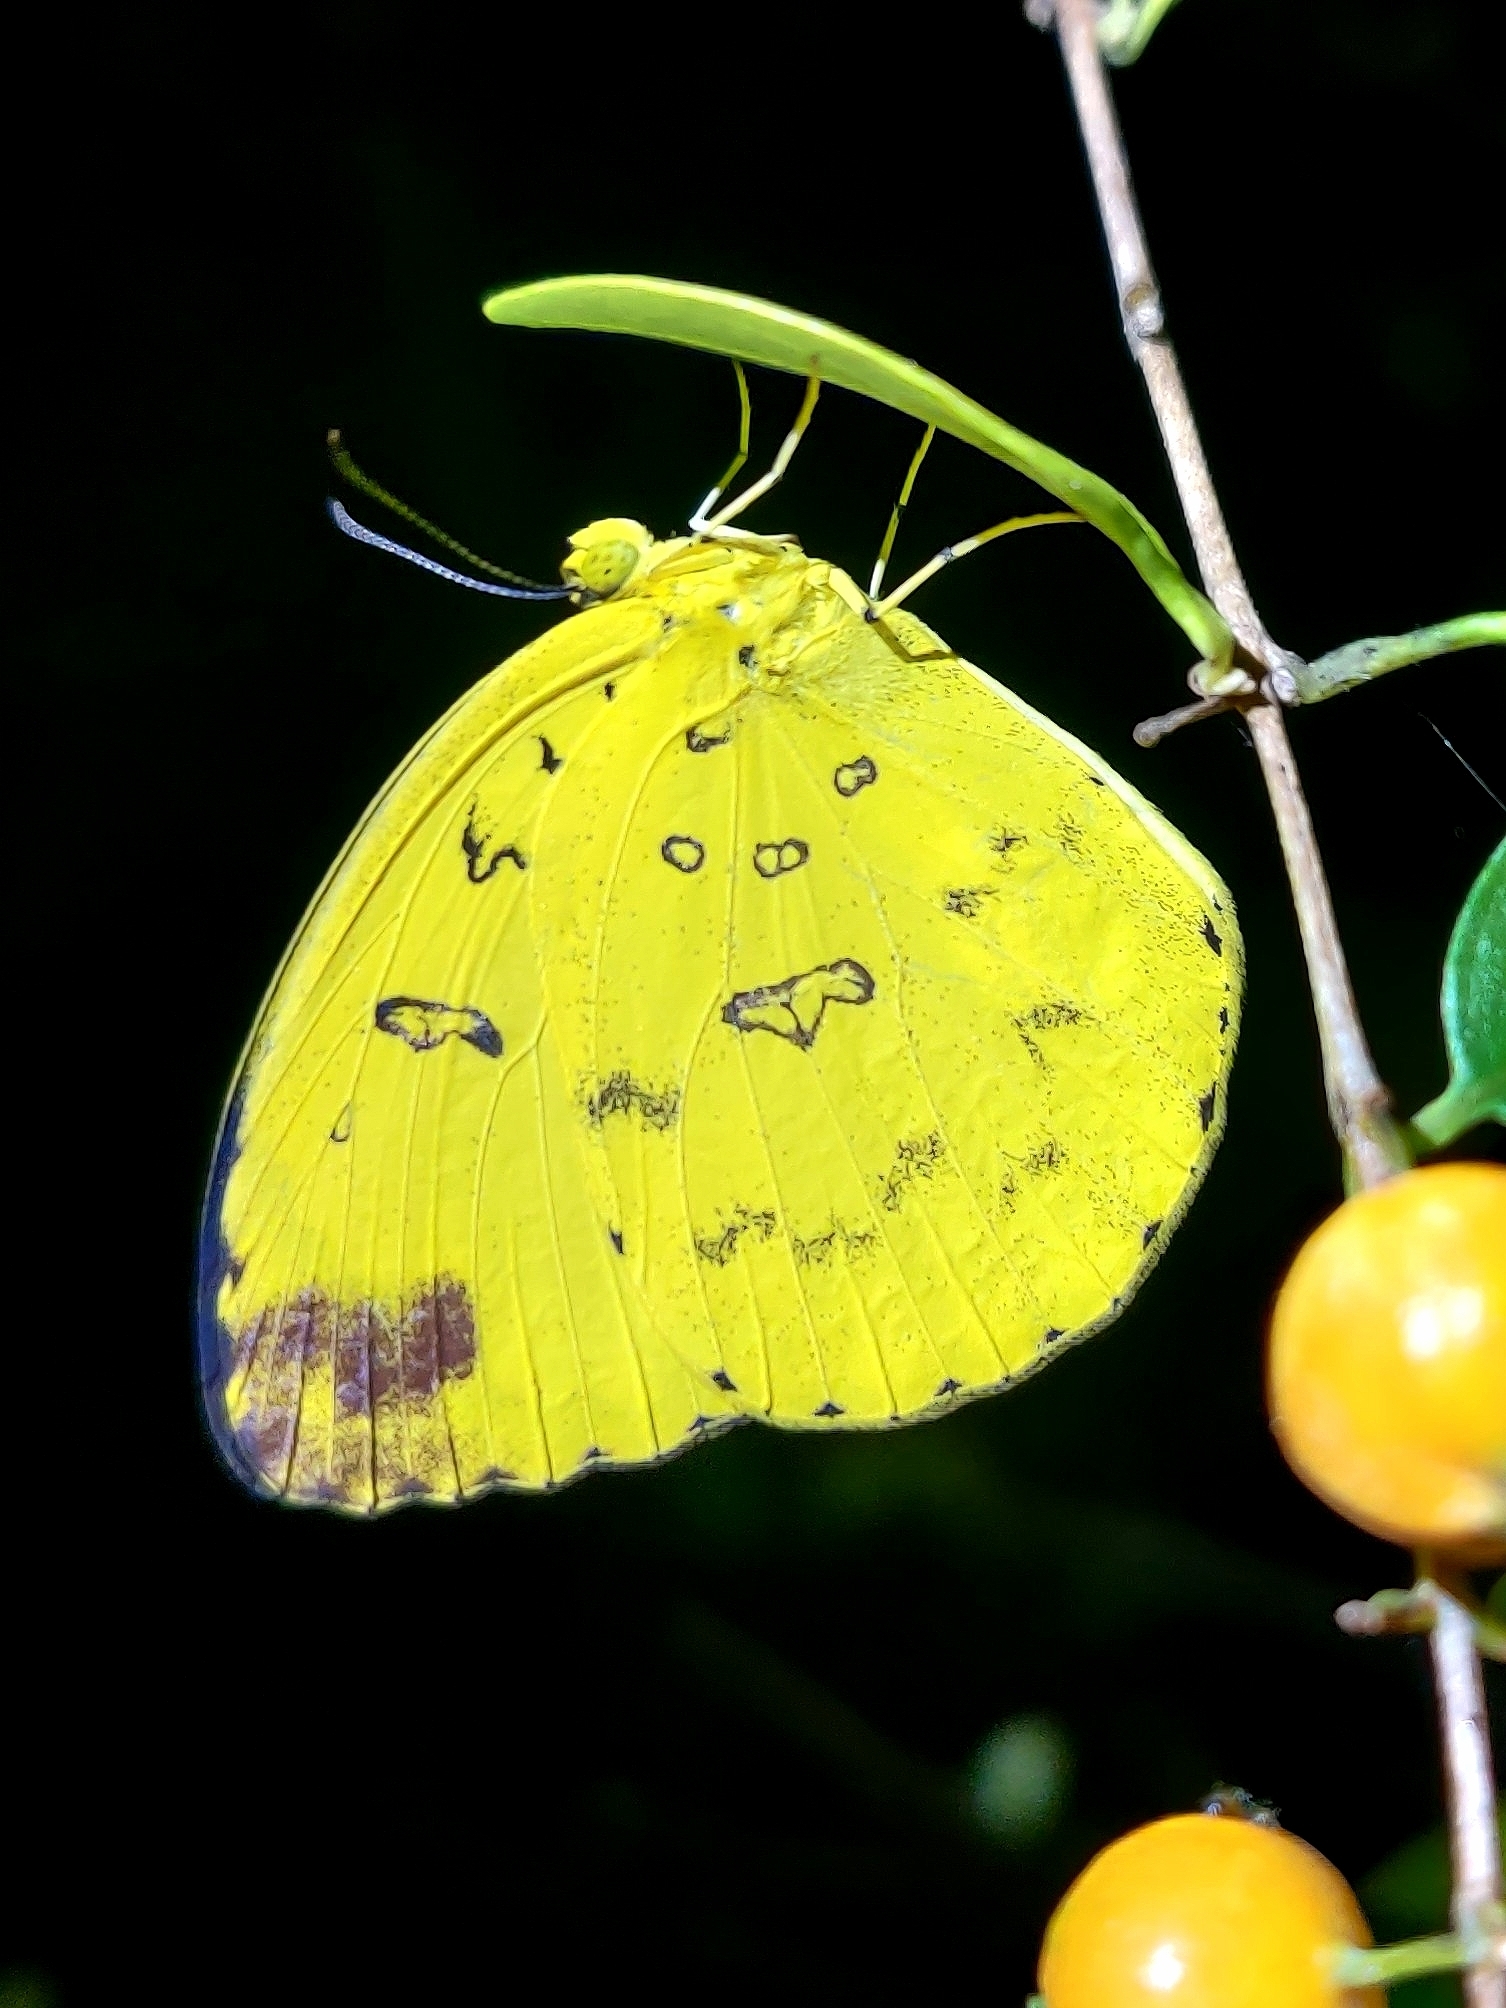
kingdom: Animalia
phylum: Arthropoda
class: Insecta
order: Lepidoptera
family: Pieridae
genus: Eurema
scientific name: Eurema blanda
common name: Three-spot grass yellow
